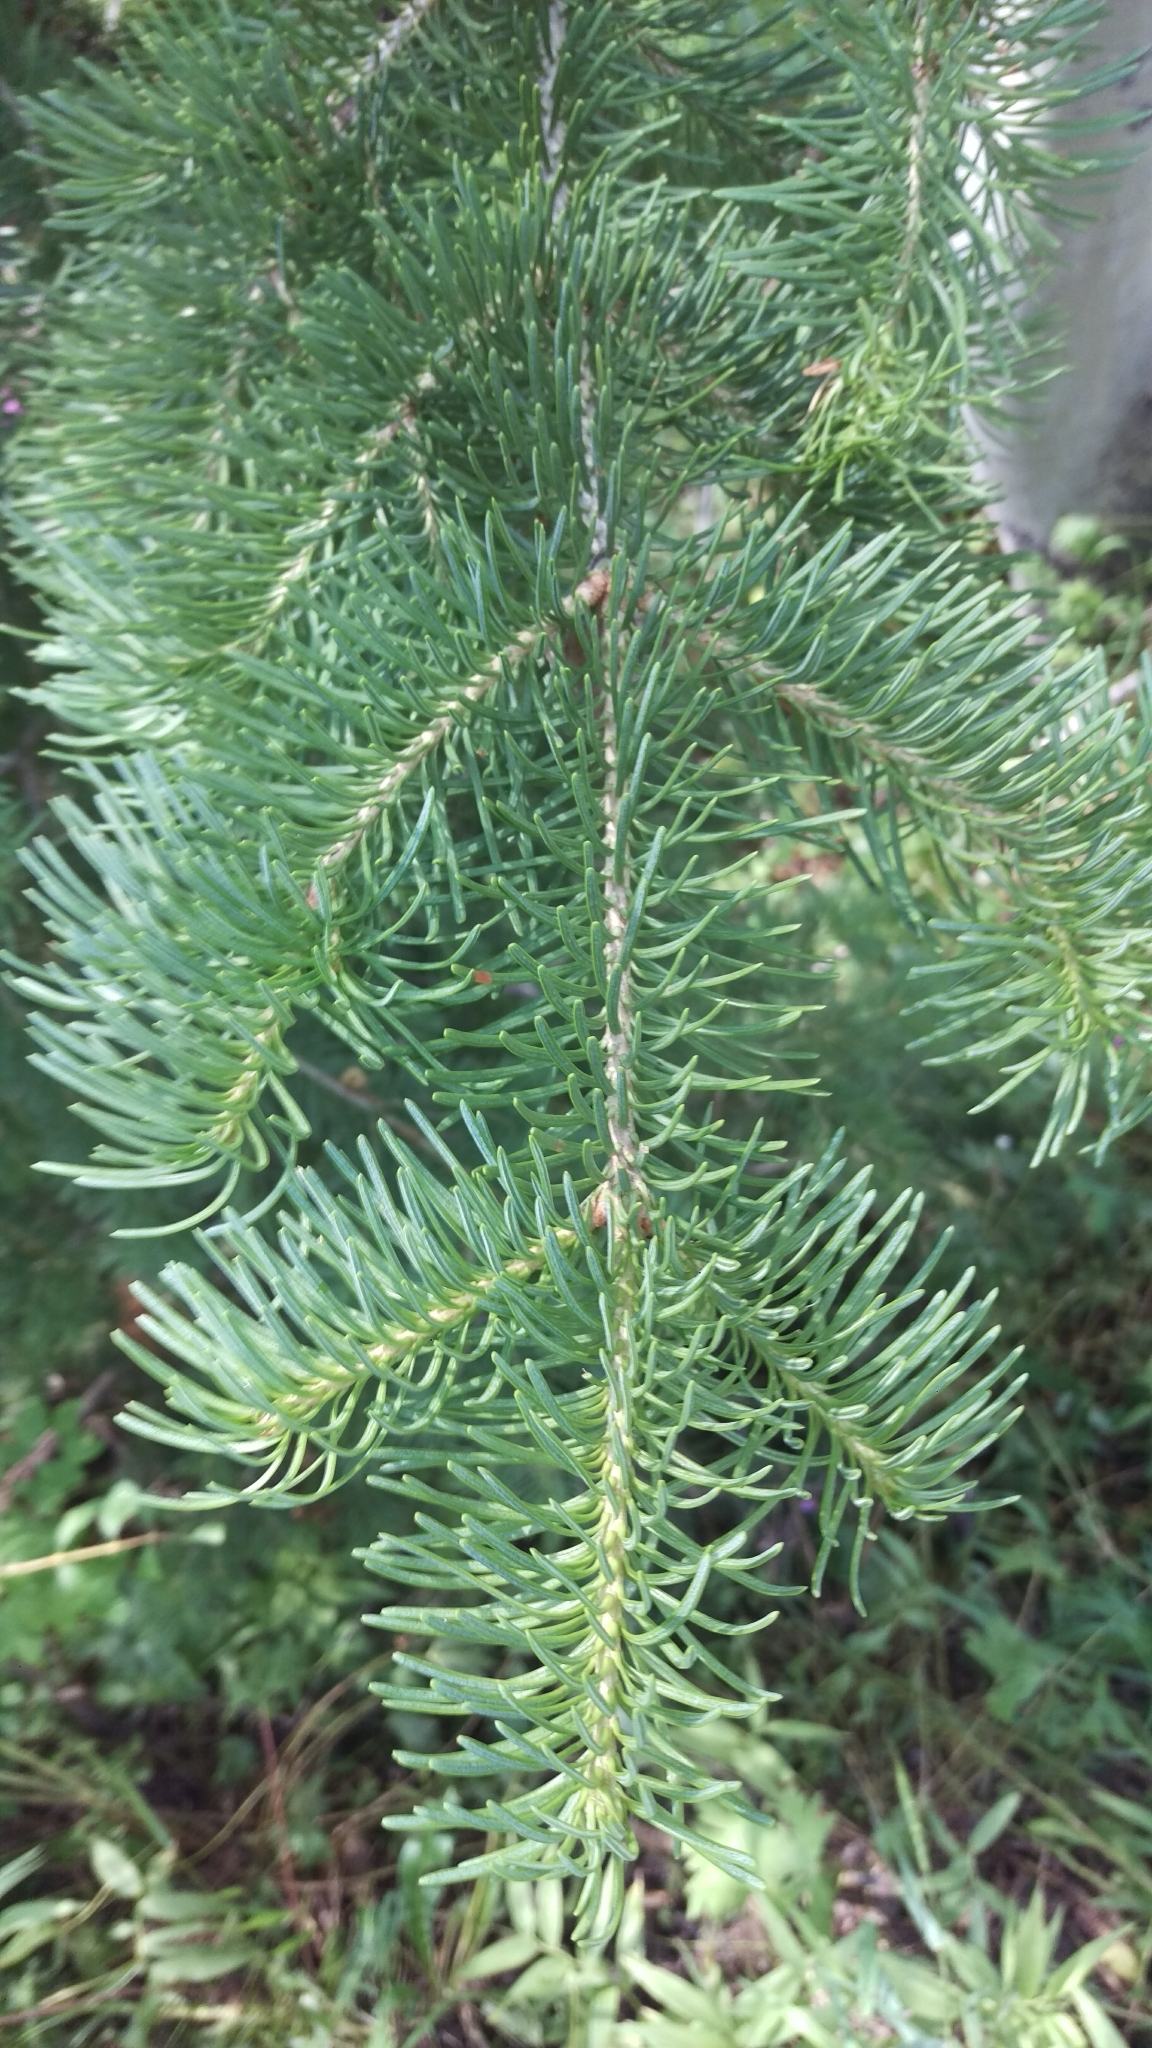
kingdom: Plantae
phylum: Tracheophyta
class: Pinopsida
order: Pinales
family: Pinaceae
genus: Abies
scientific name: Abies concolor
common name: Colorado fir
